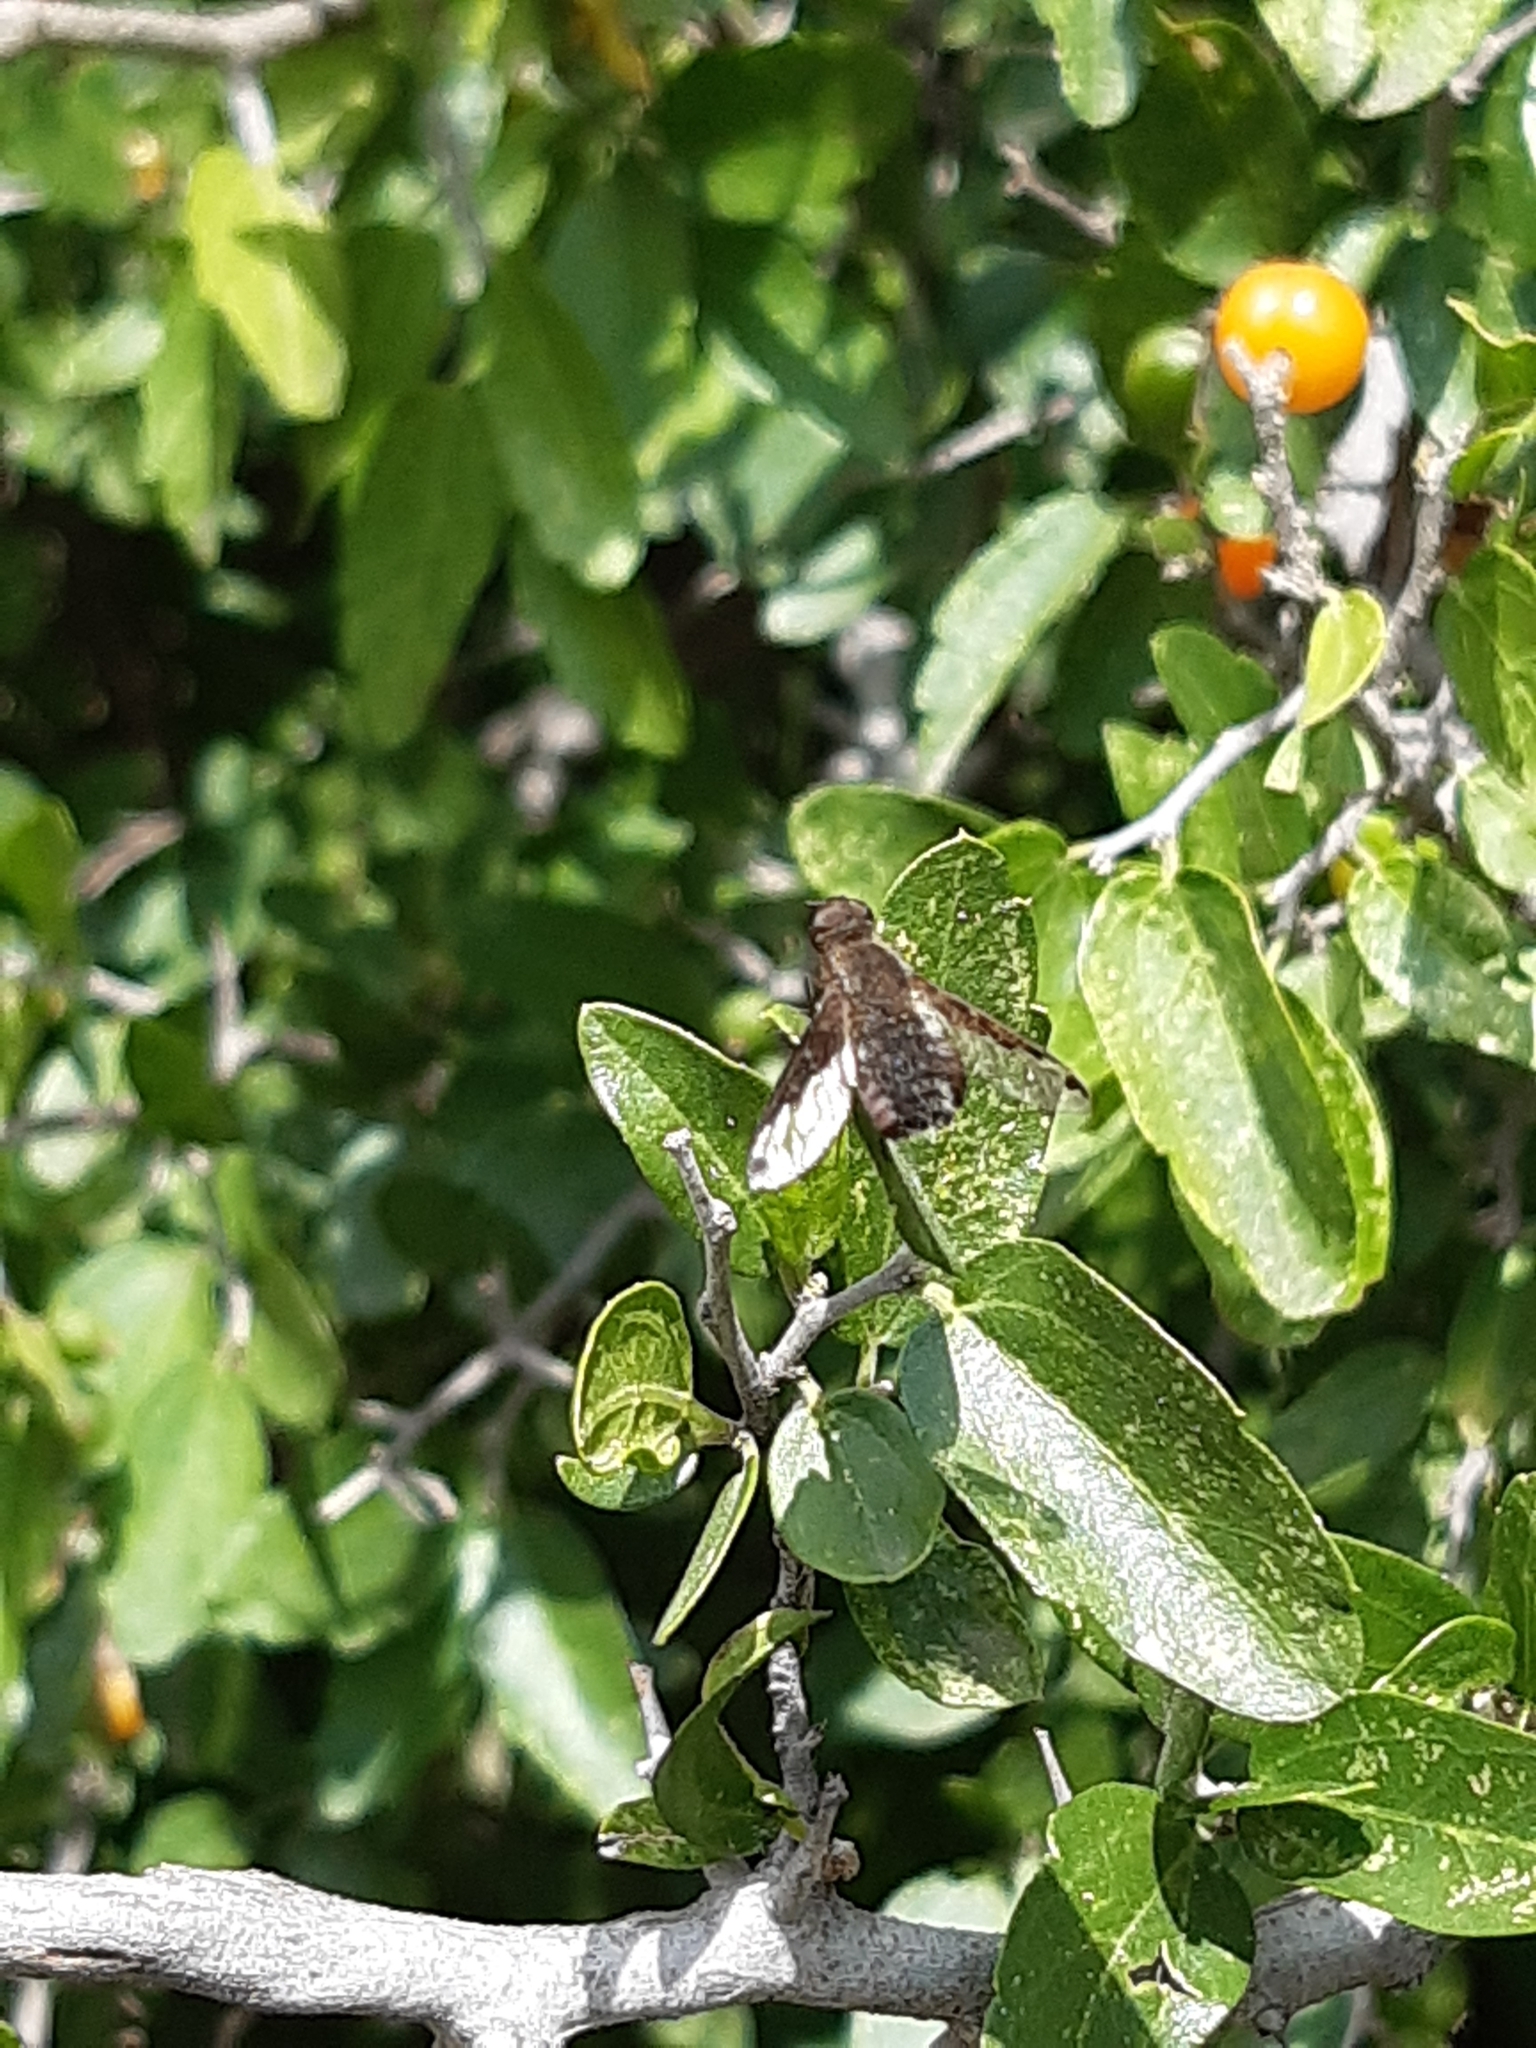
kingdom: Animalia
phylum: Arthropoda
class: Insecta
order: Diptera
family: Bombyliidae
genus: Hemipenthes
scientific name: Hemipenthes scylla
